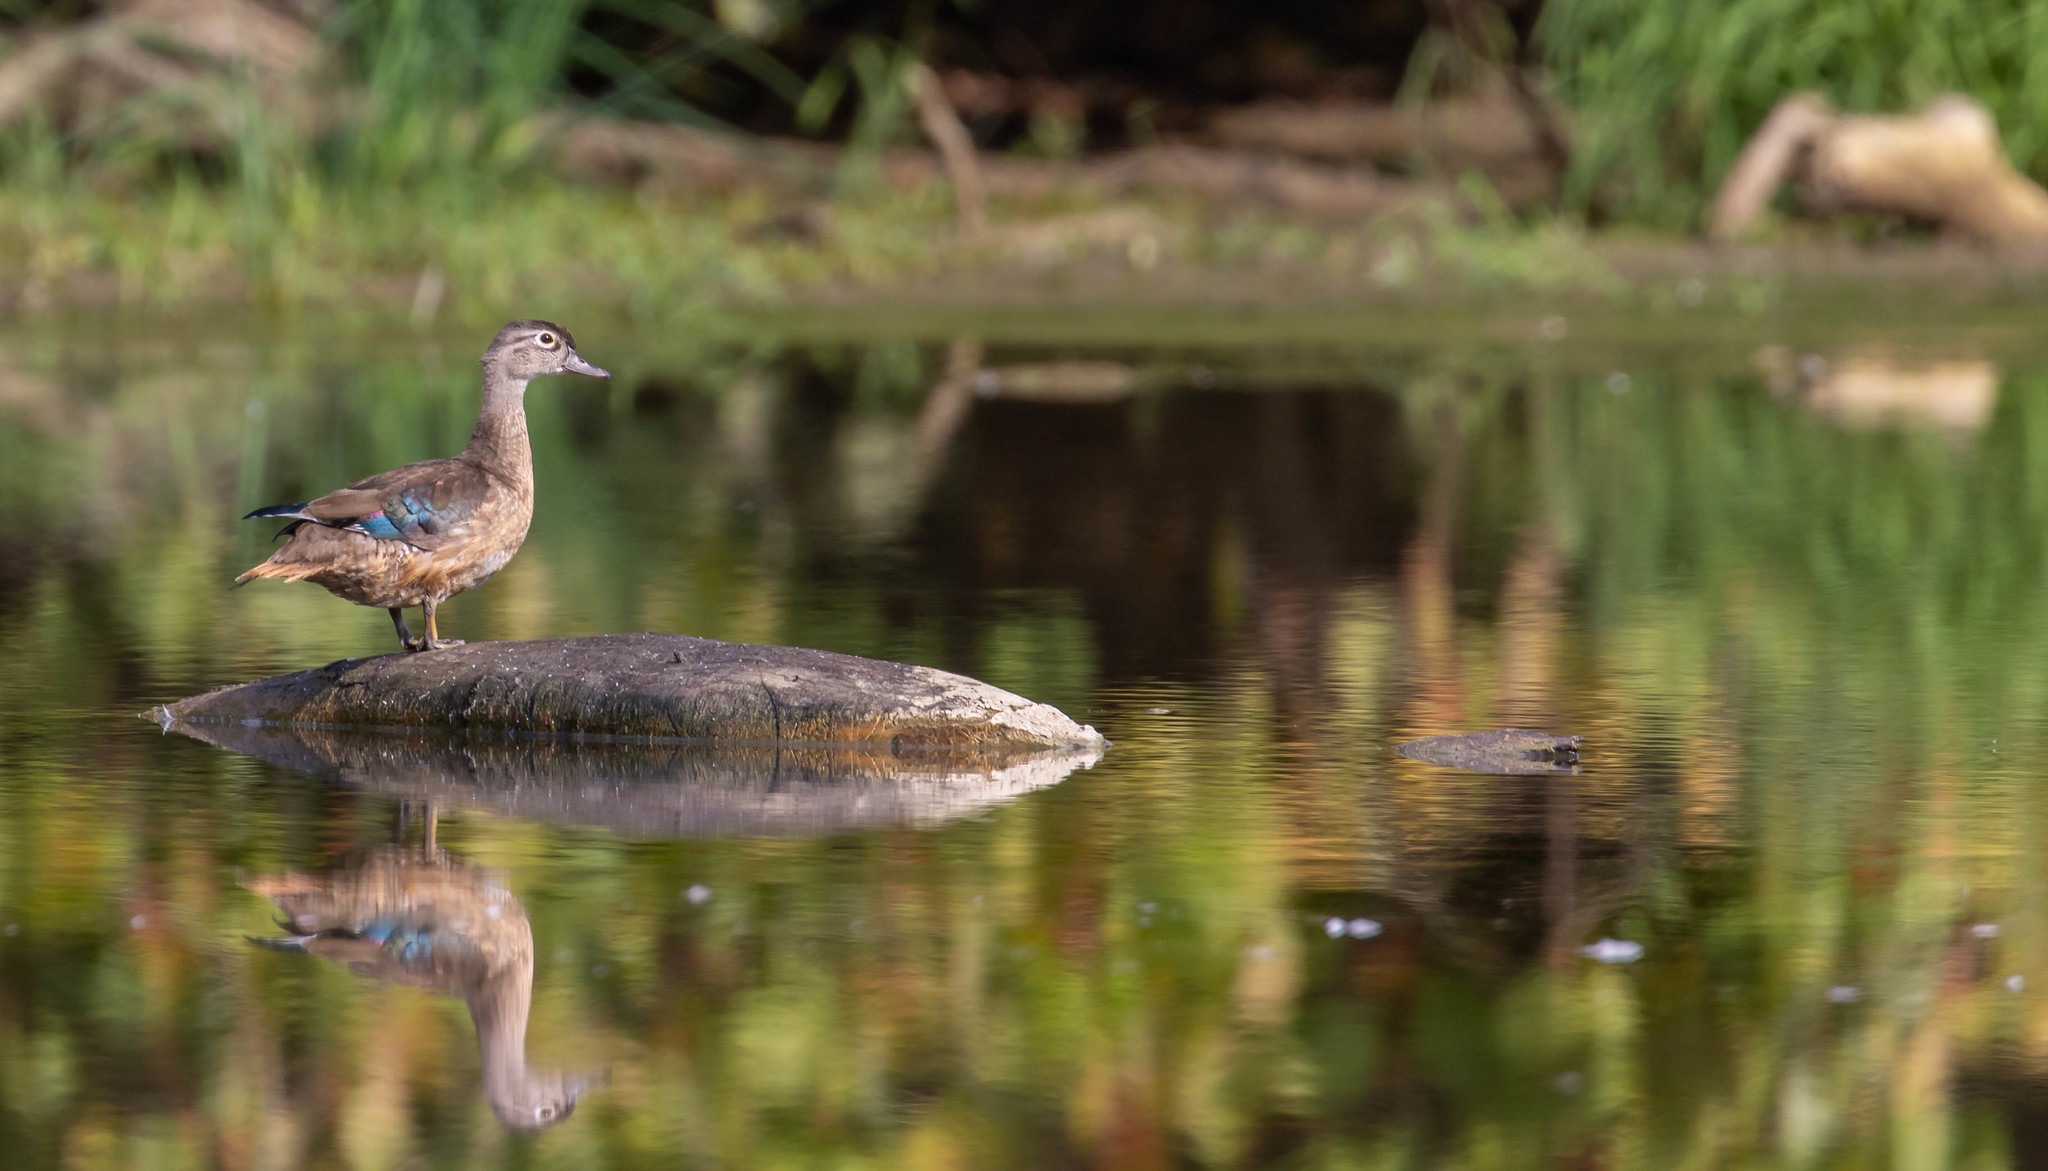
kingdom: Animalia
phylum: Chordata
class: Aves
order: Anseriformes
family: Anatidae
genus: Aix
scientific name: Aix sponsa
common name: Wood duck
